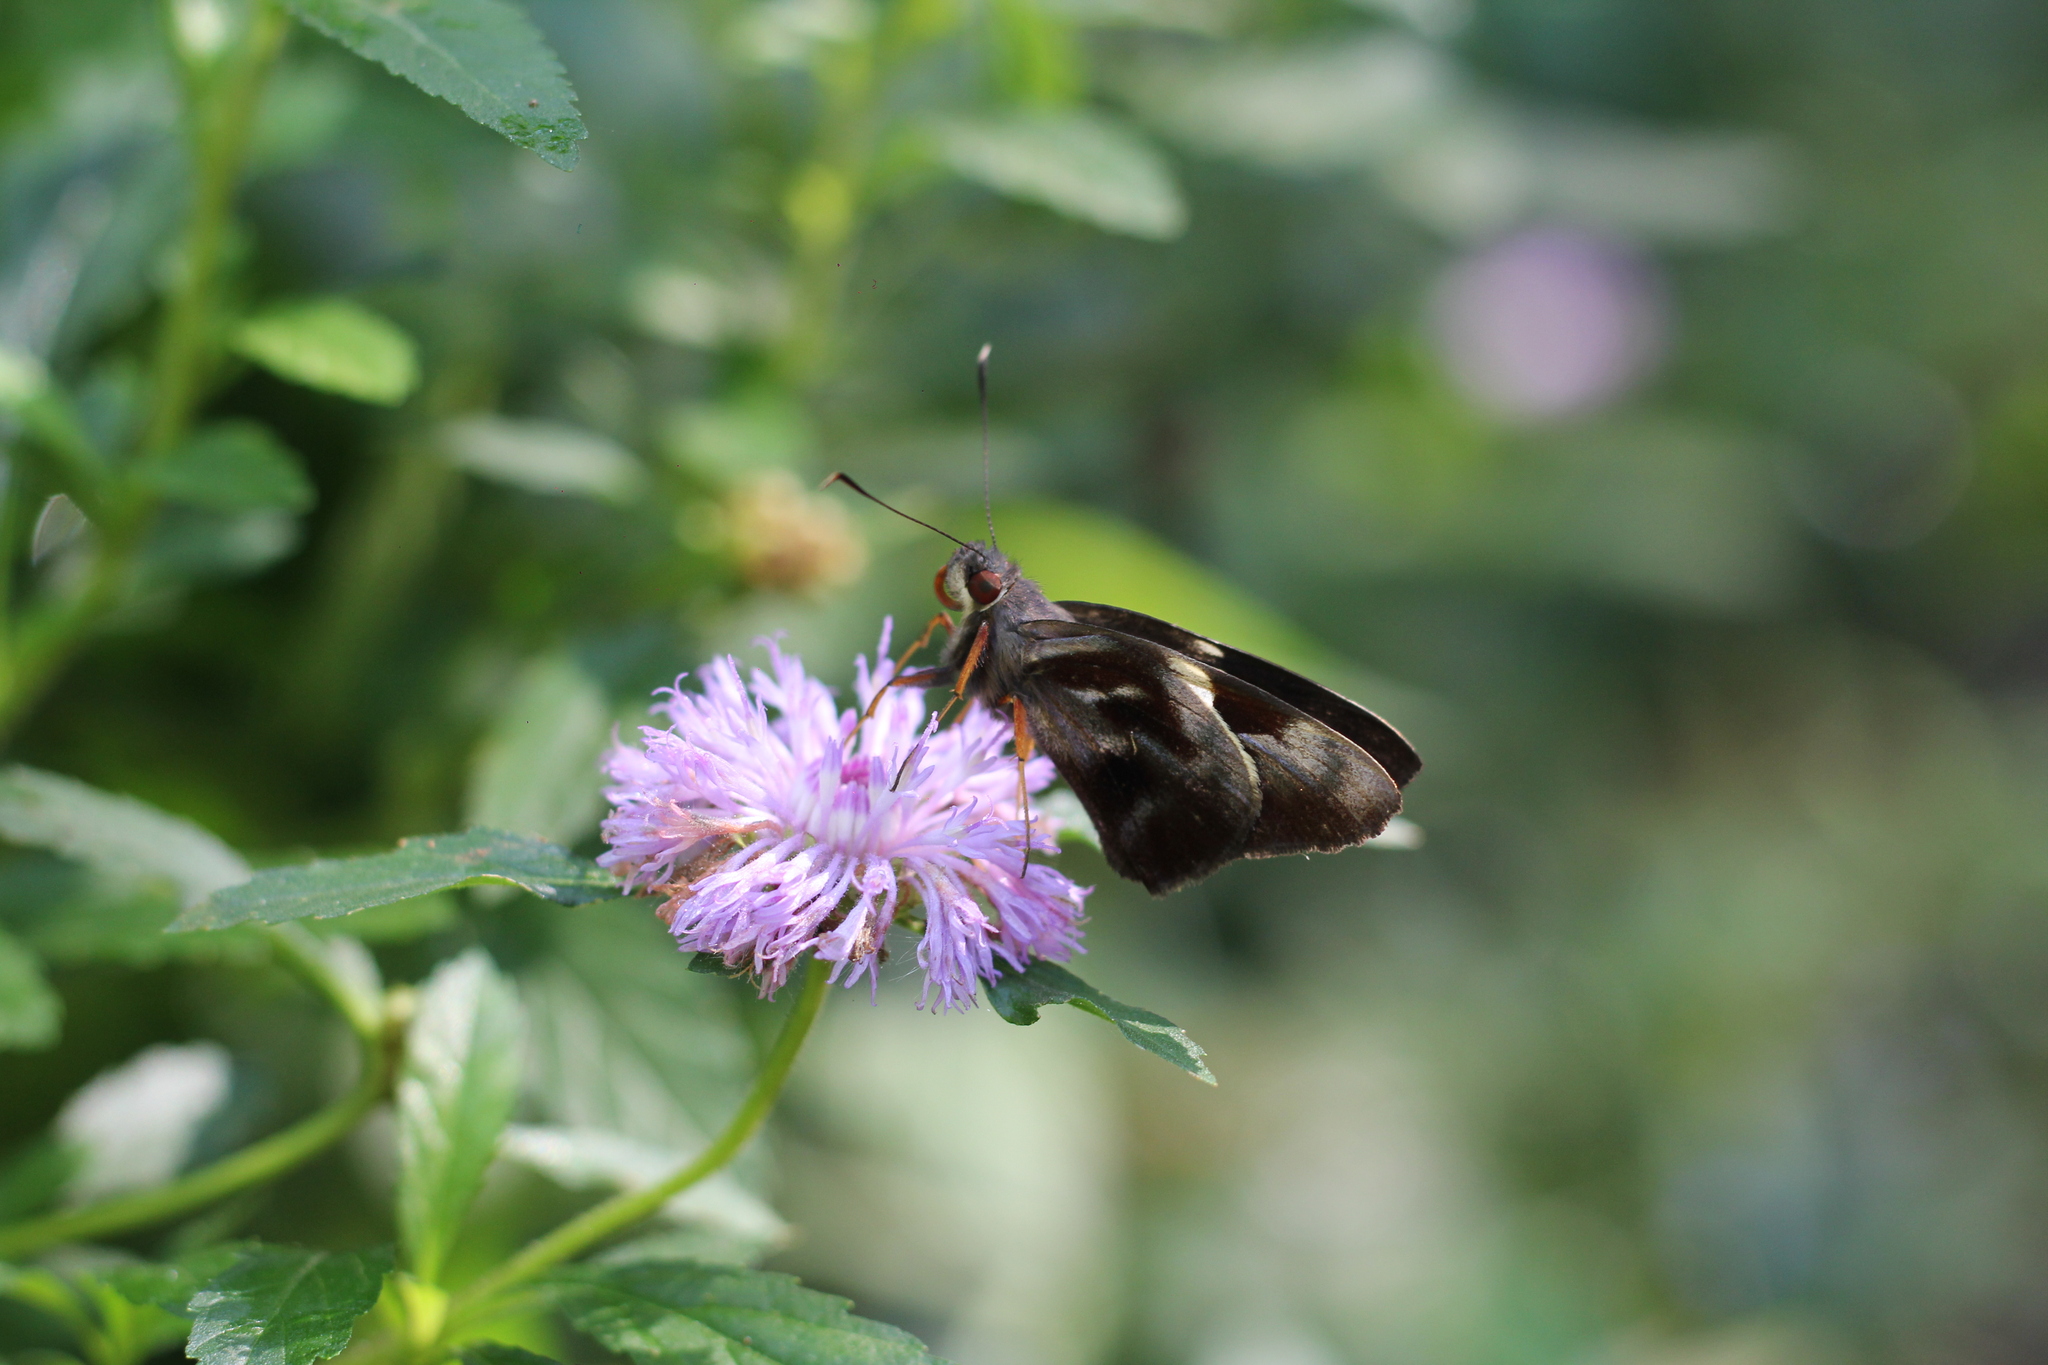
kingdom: Animalia
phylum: Arthropoda
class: Insecta
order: Lepidoptera
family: Hesperiidae
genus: Perichares
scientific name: Perichares seneca
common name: Seneca ruby-eye
